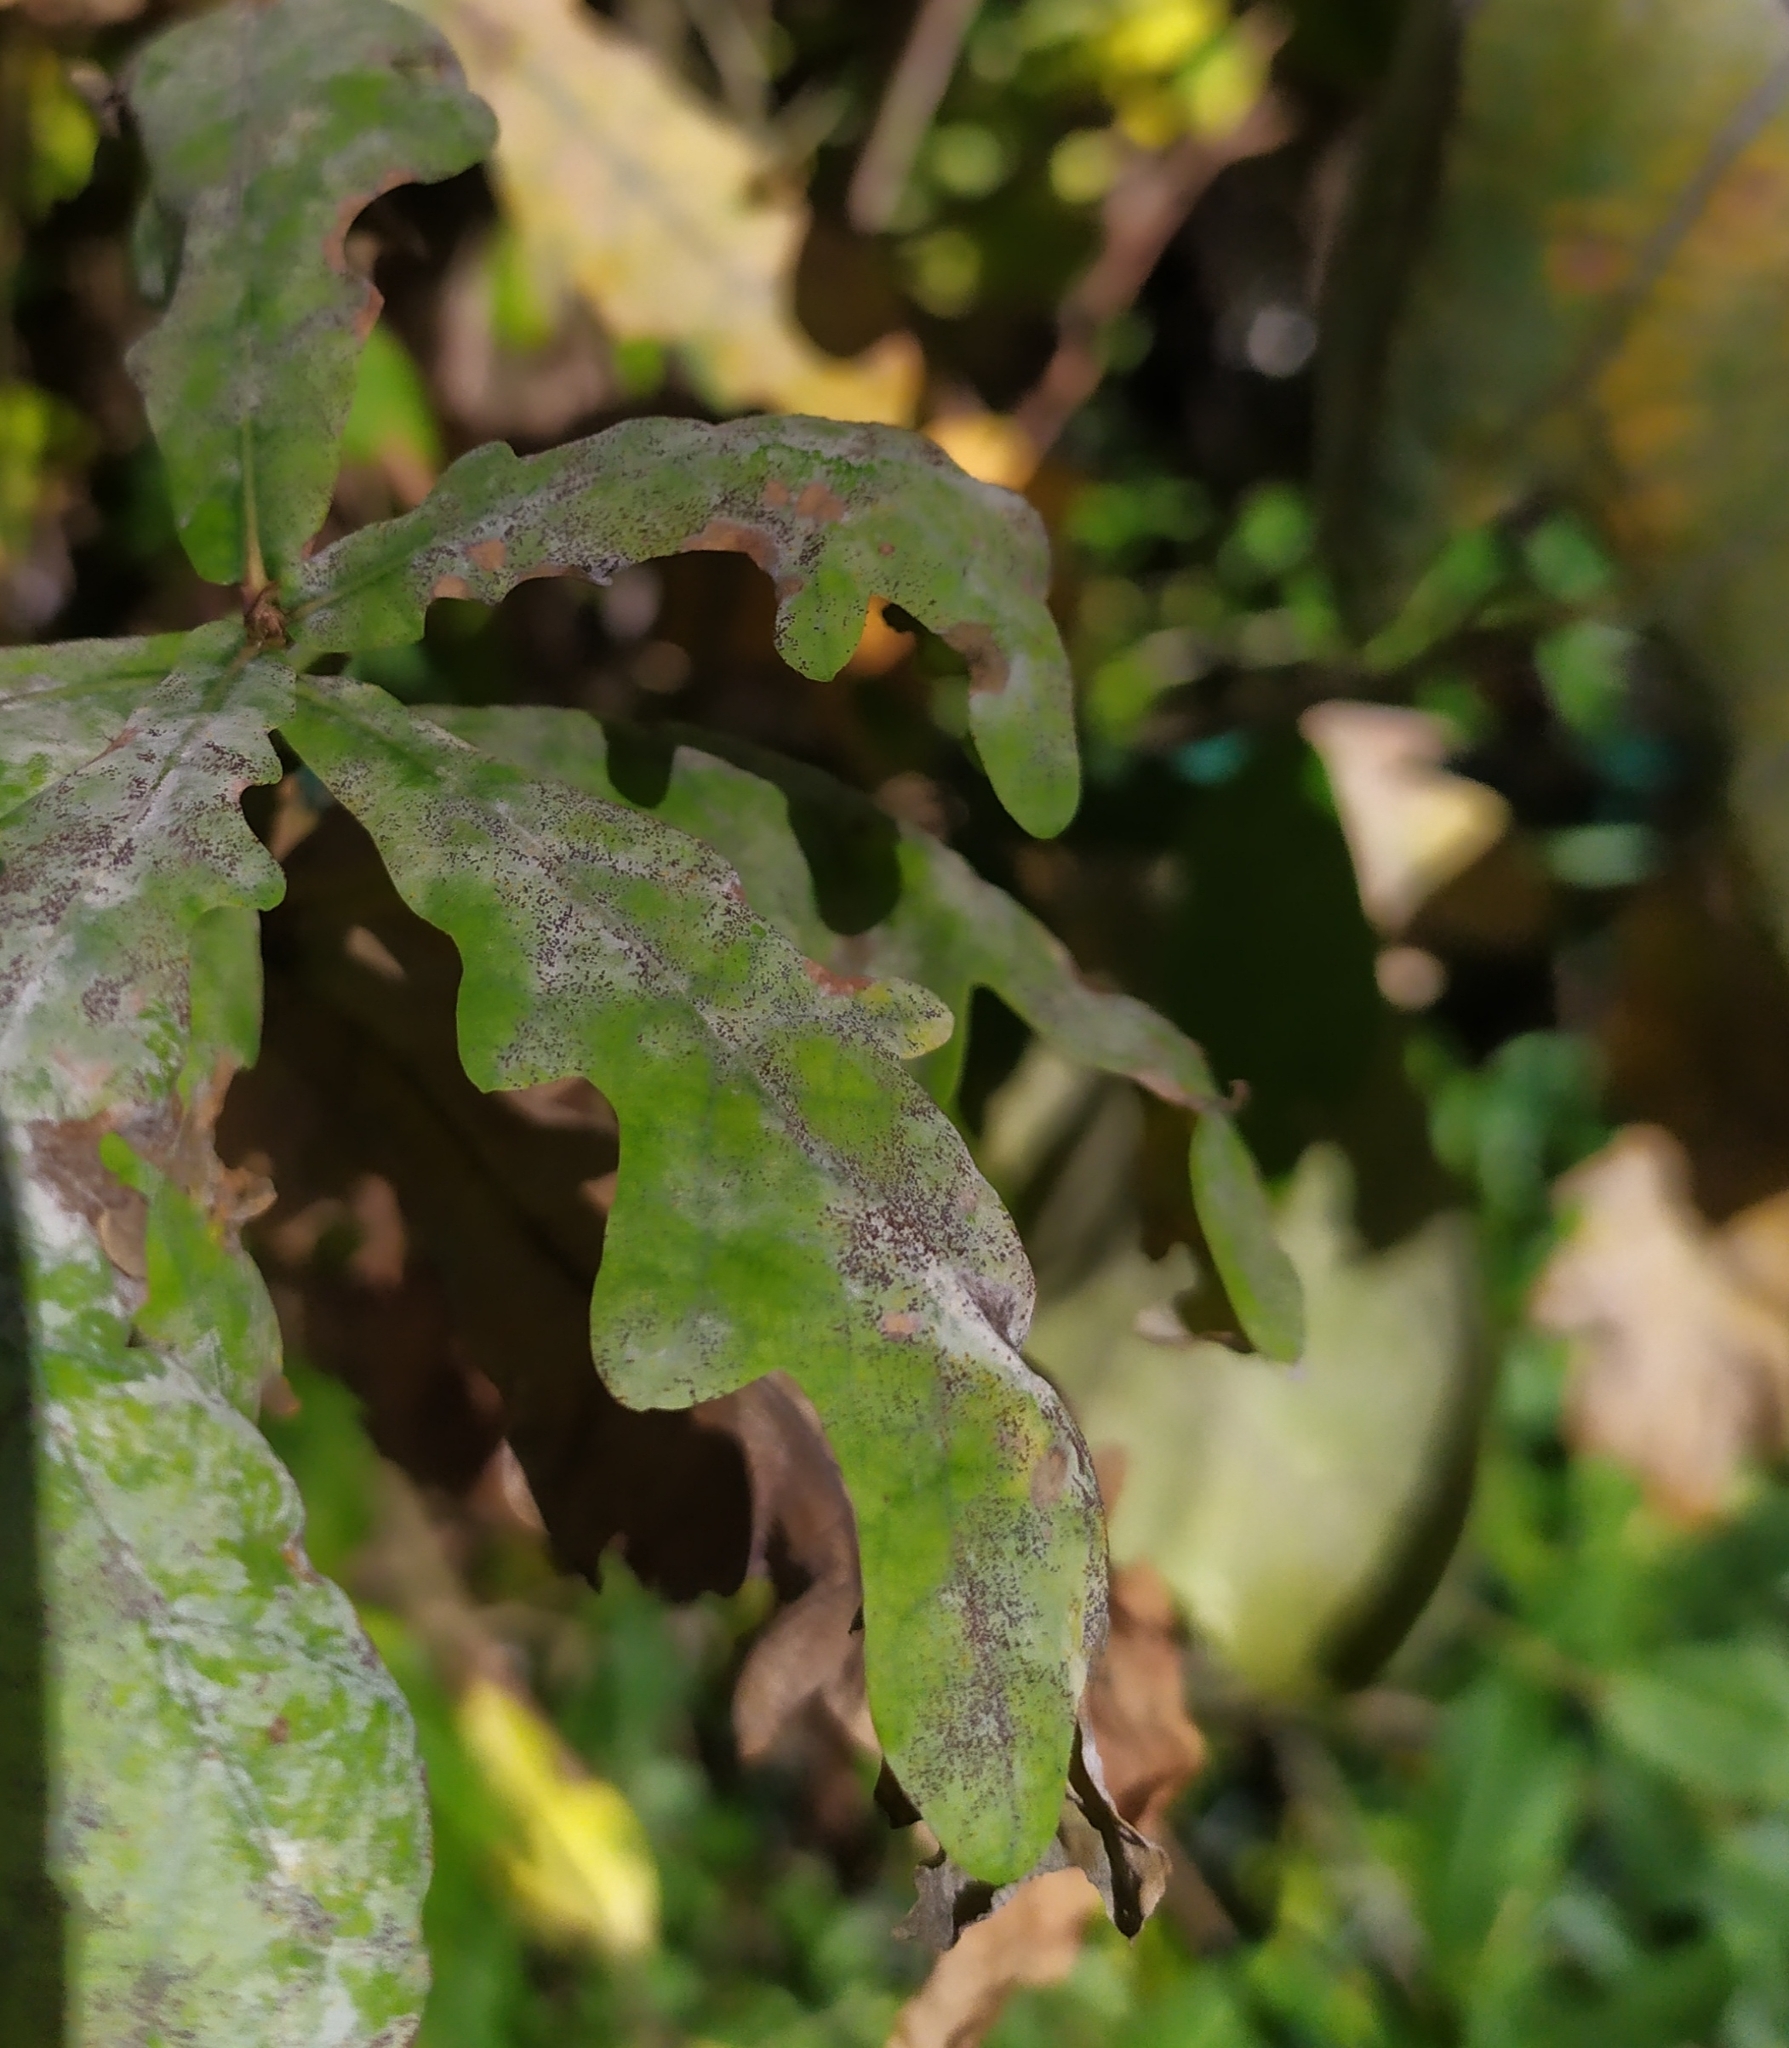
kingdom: Fungi
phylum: Ascomycota
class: Leotiomycetes
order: Helotiales
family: Erysiphaceae
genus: Erysiphe
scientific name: Erysiphe
